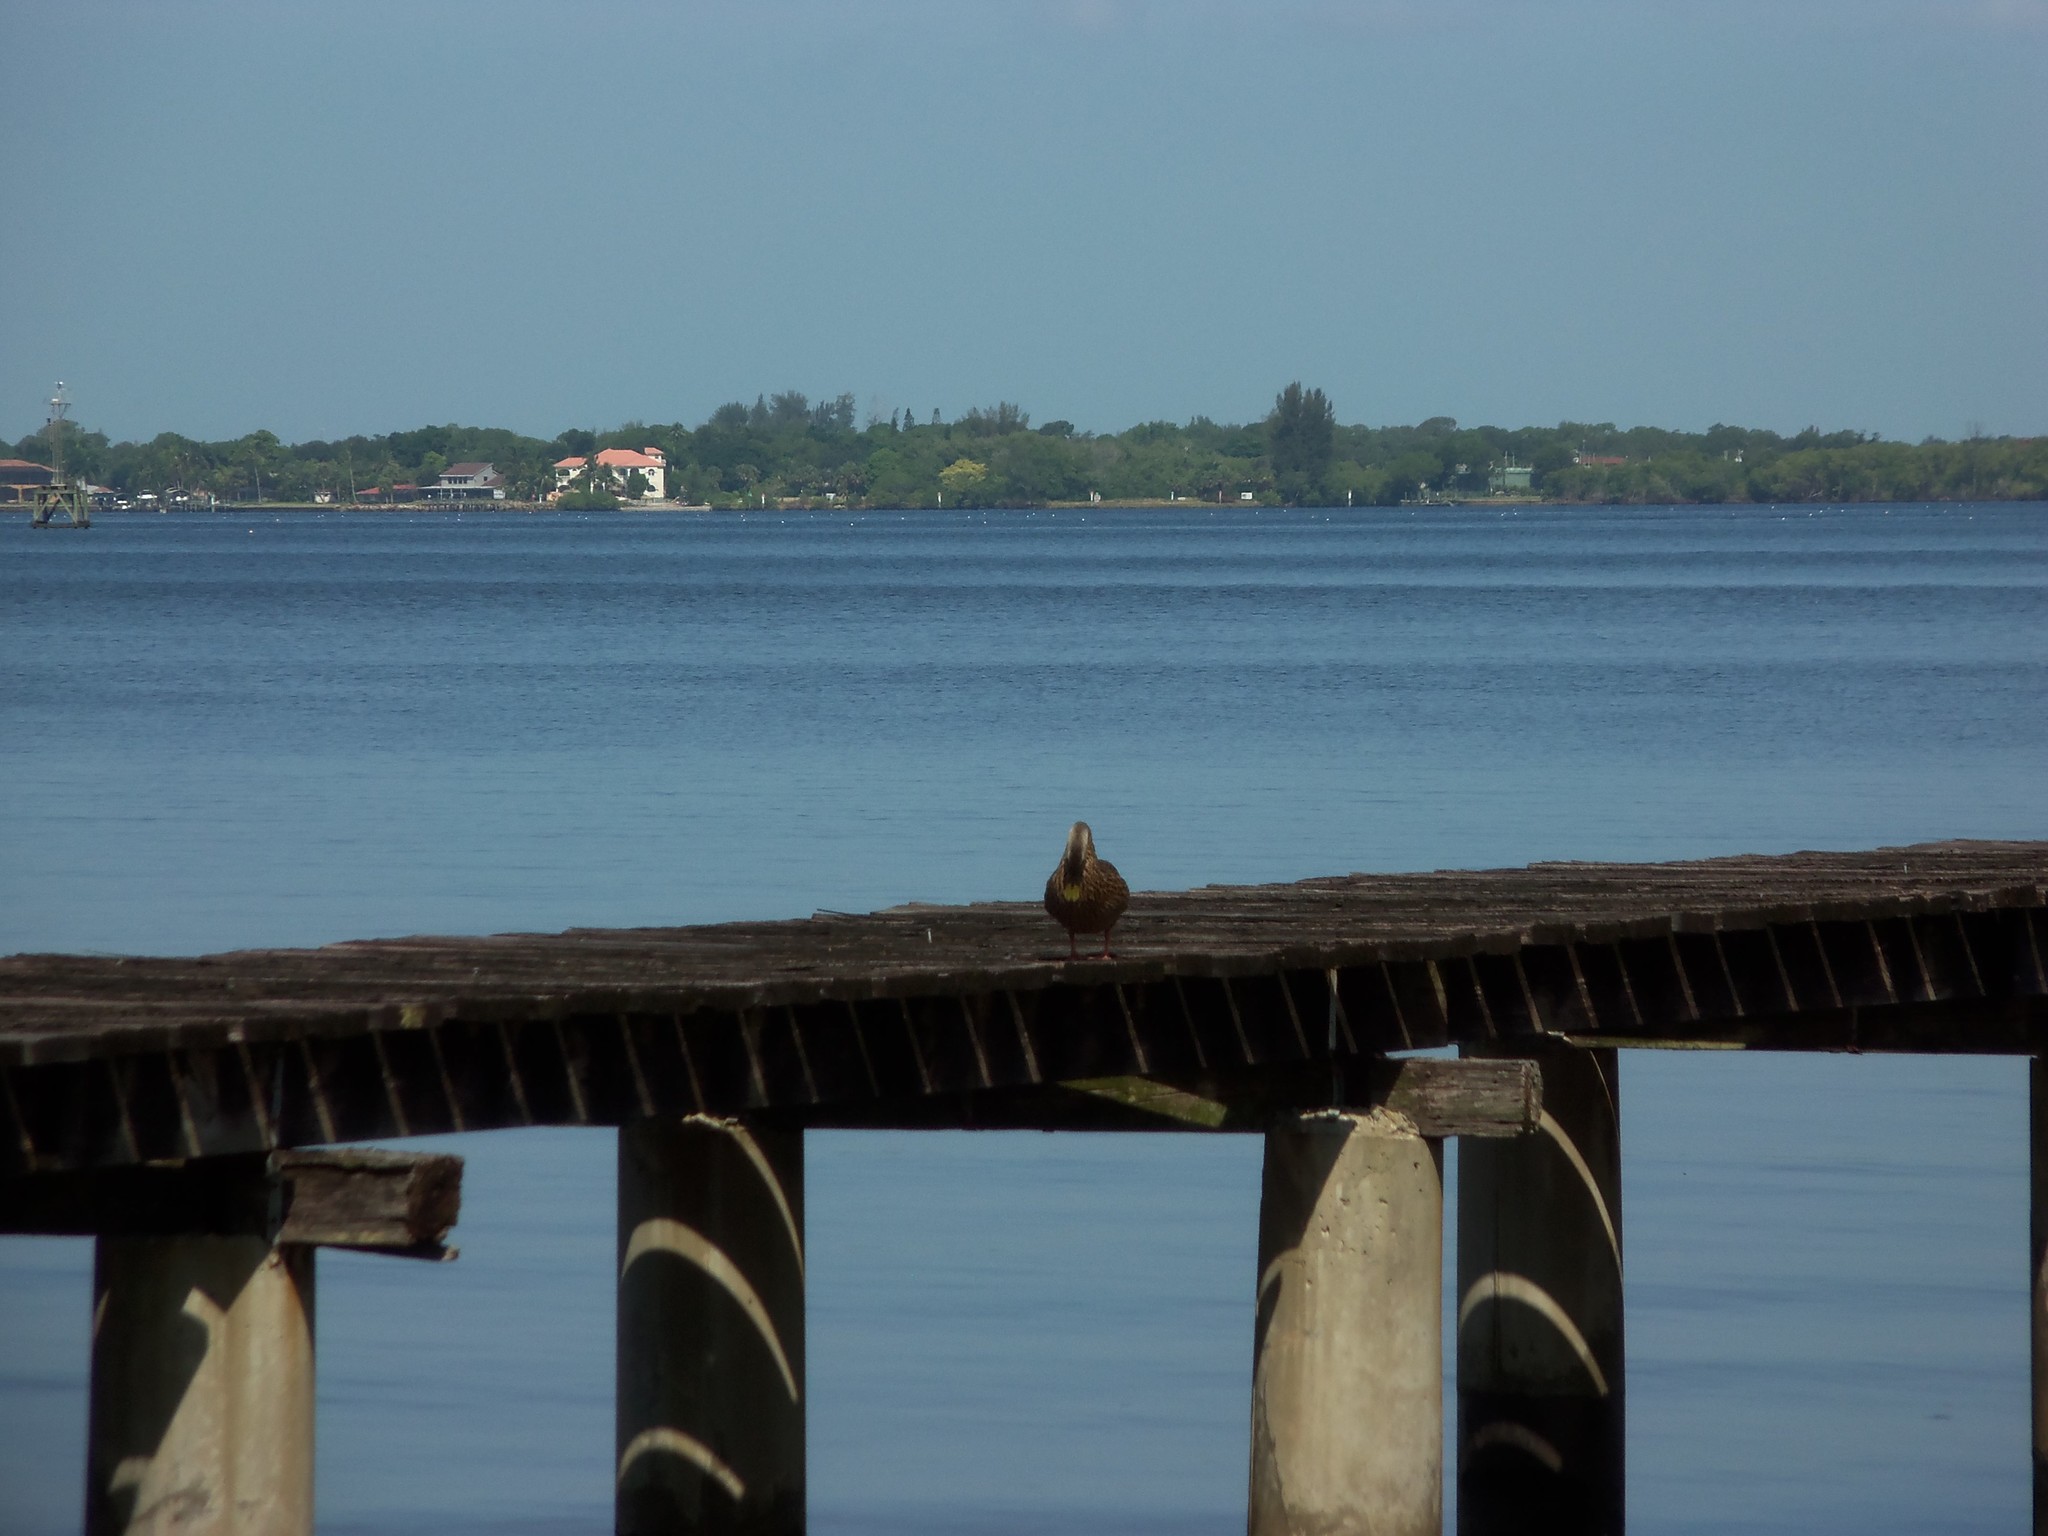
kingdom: Animalia
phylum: Chordata
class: Aves
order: Anseriformes
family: Anatidae
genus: Anas
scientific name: Anas
